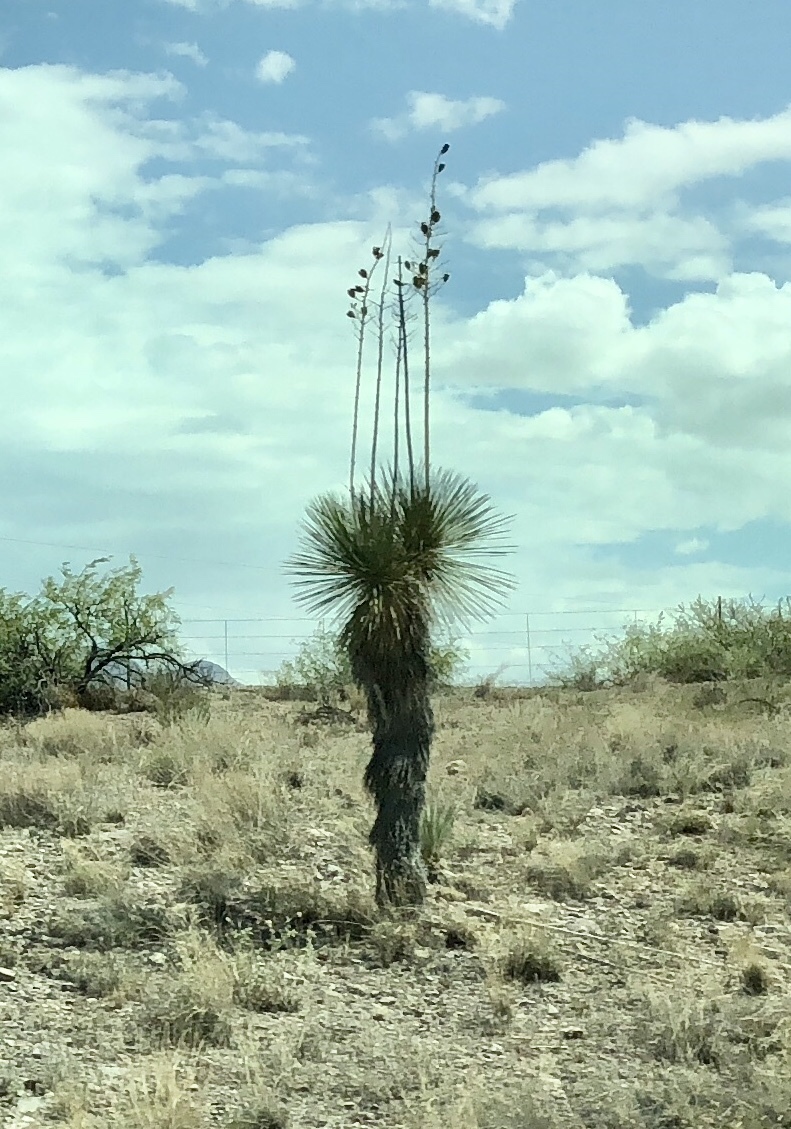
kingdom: Plantae
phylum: Tracheophyta
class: Liliopsida
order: Asparagales
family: Asparagaceae
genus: Yucca
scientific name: Yucca elata
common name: Palmella
